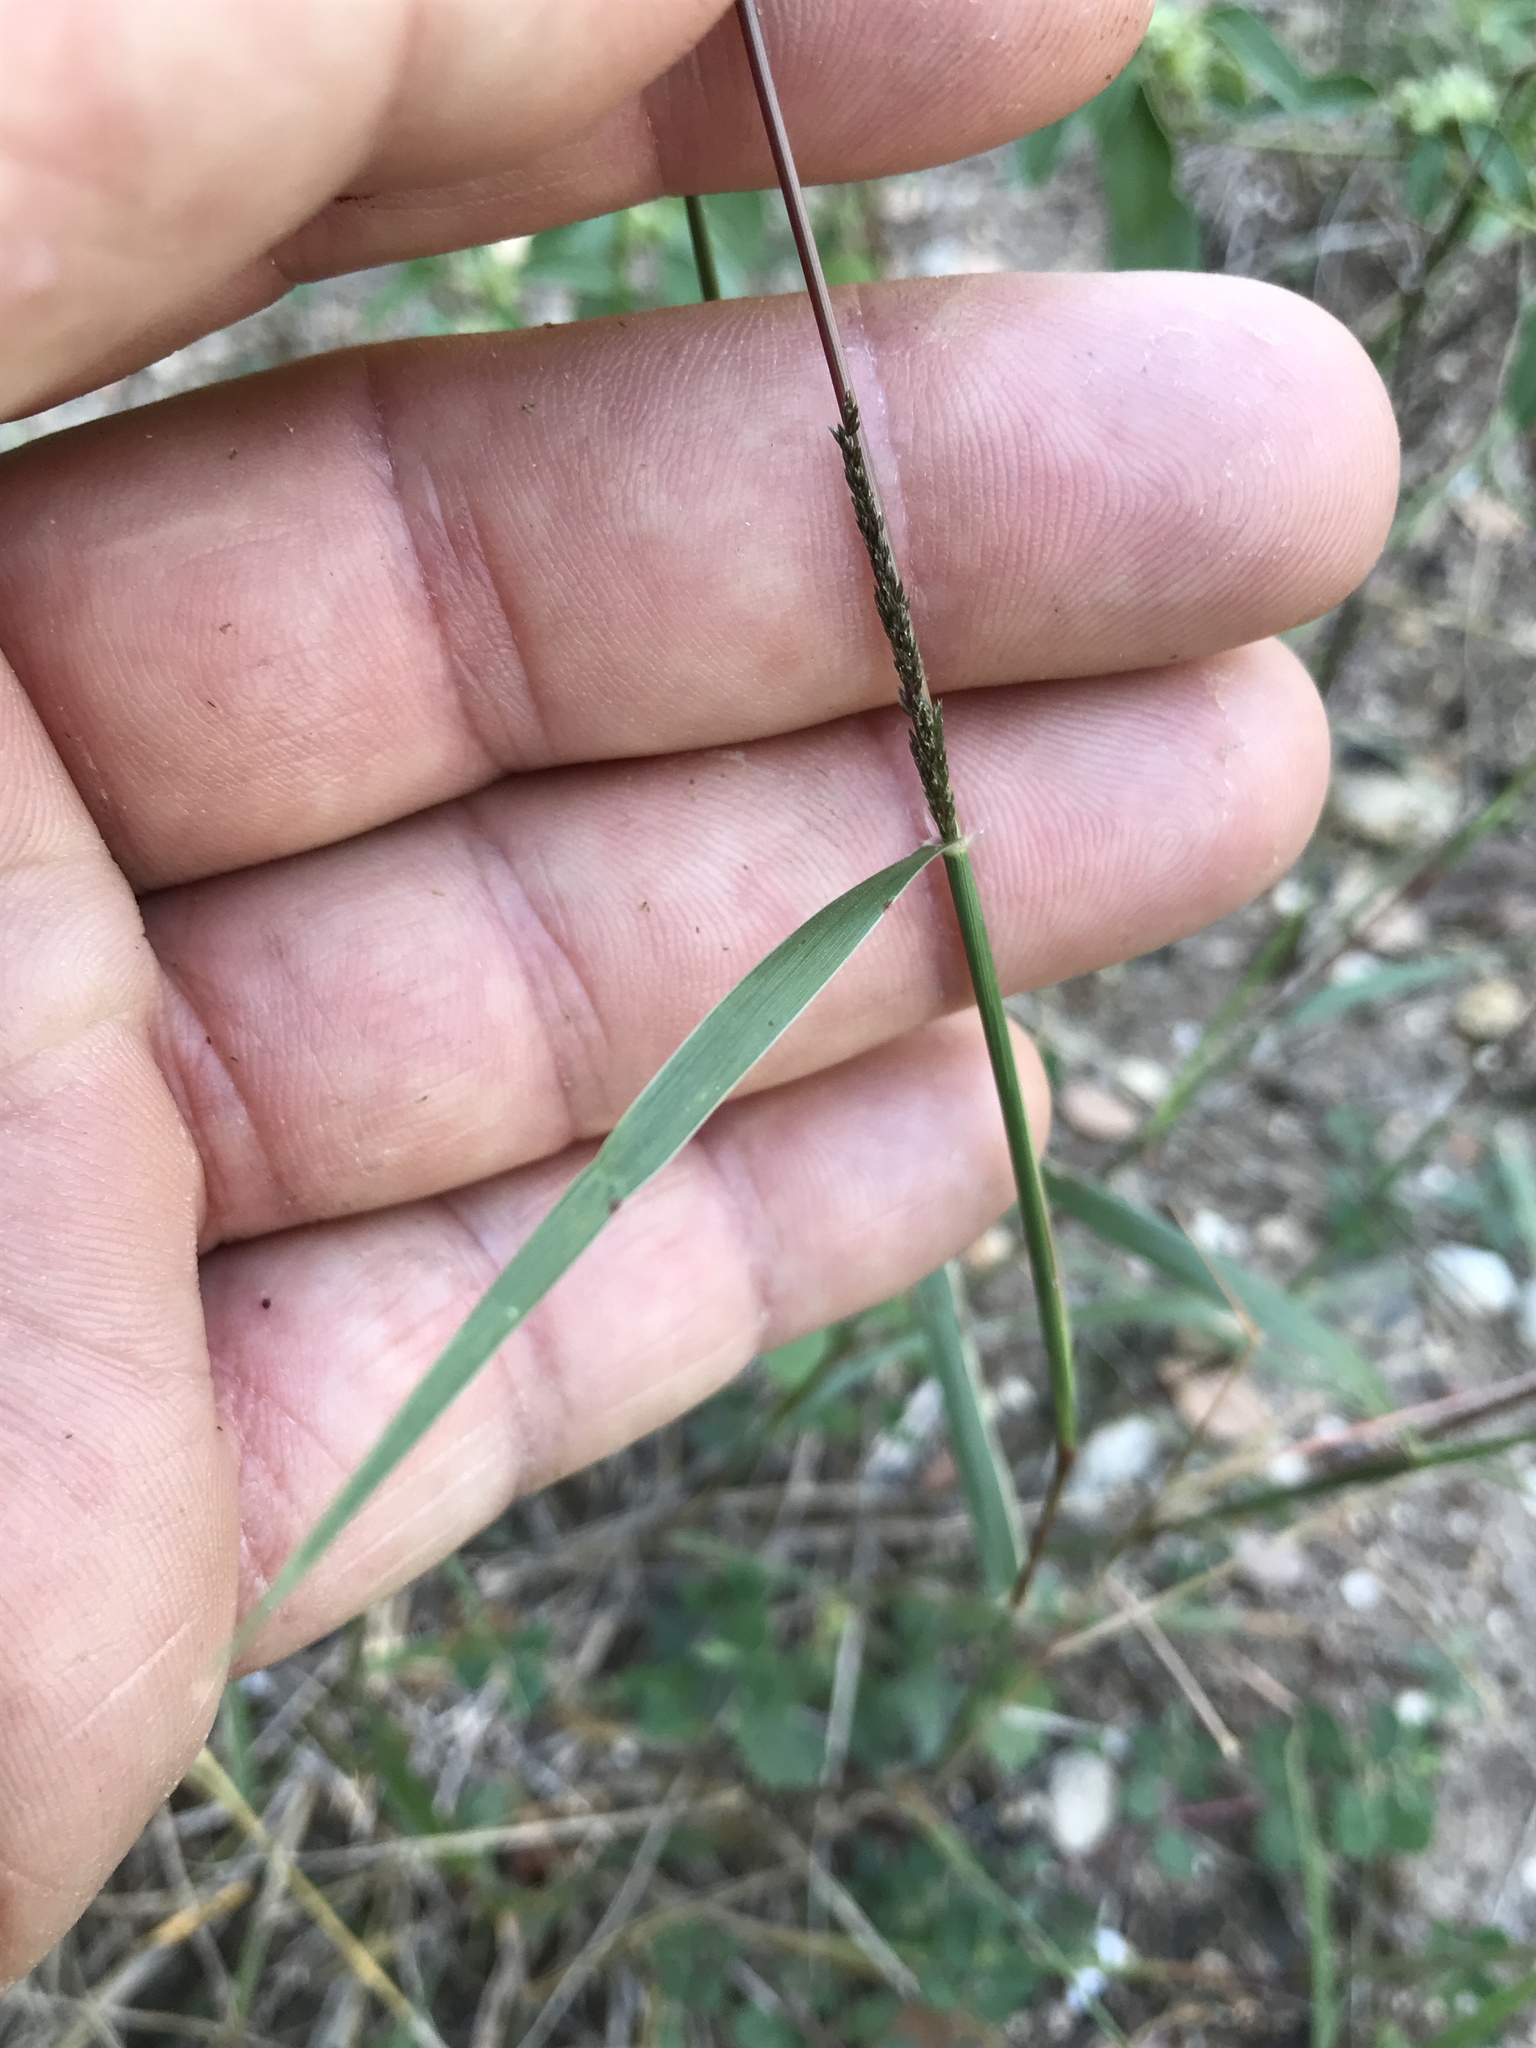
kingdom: Plantae
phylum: Tracheophyta
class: Liliopsida
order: Poales
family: Poaceae
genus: Sporobolus
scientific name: Sporobolus cryptandrus
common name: Sand dropseed
